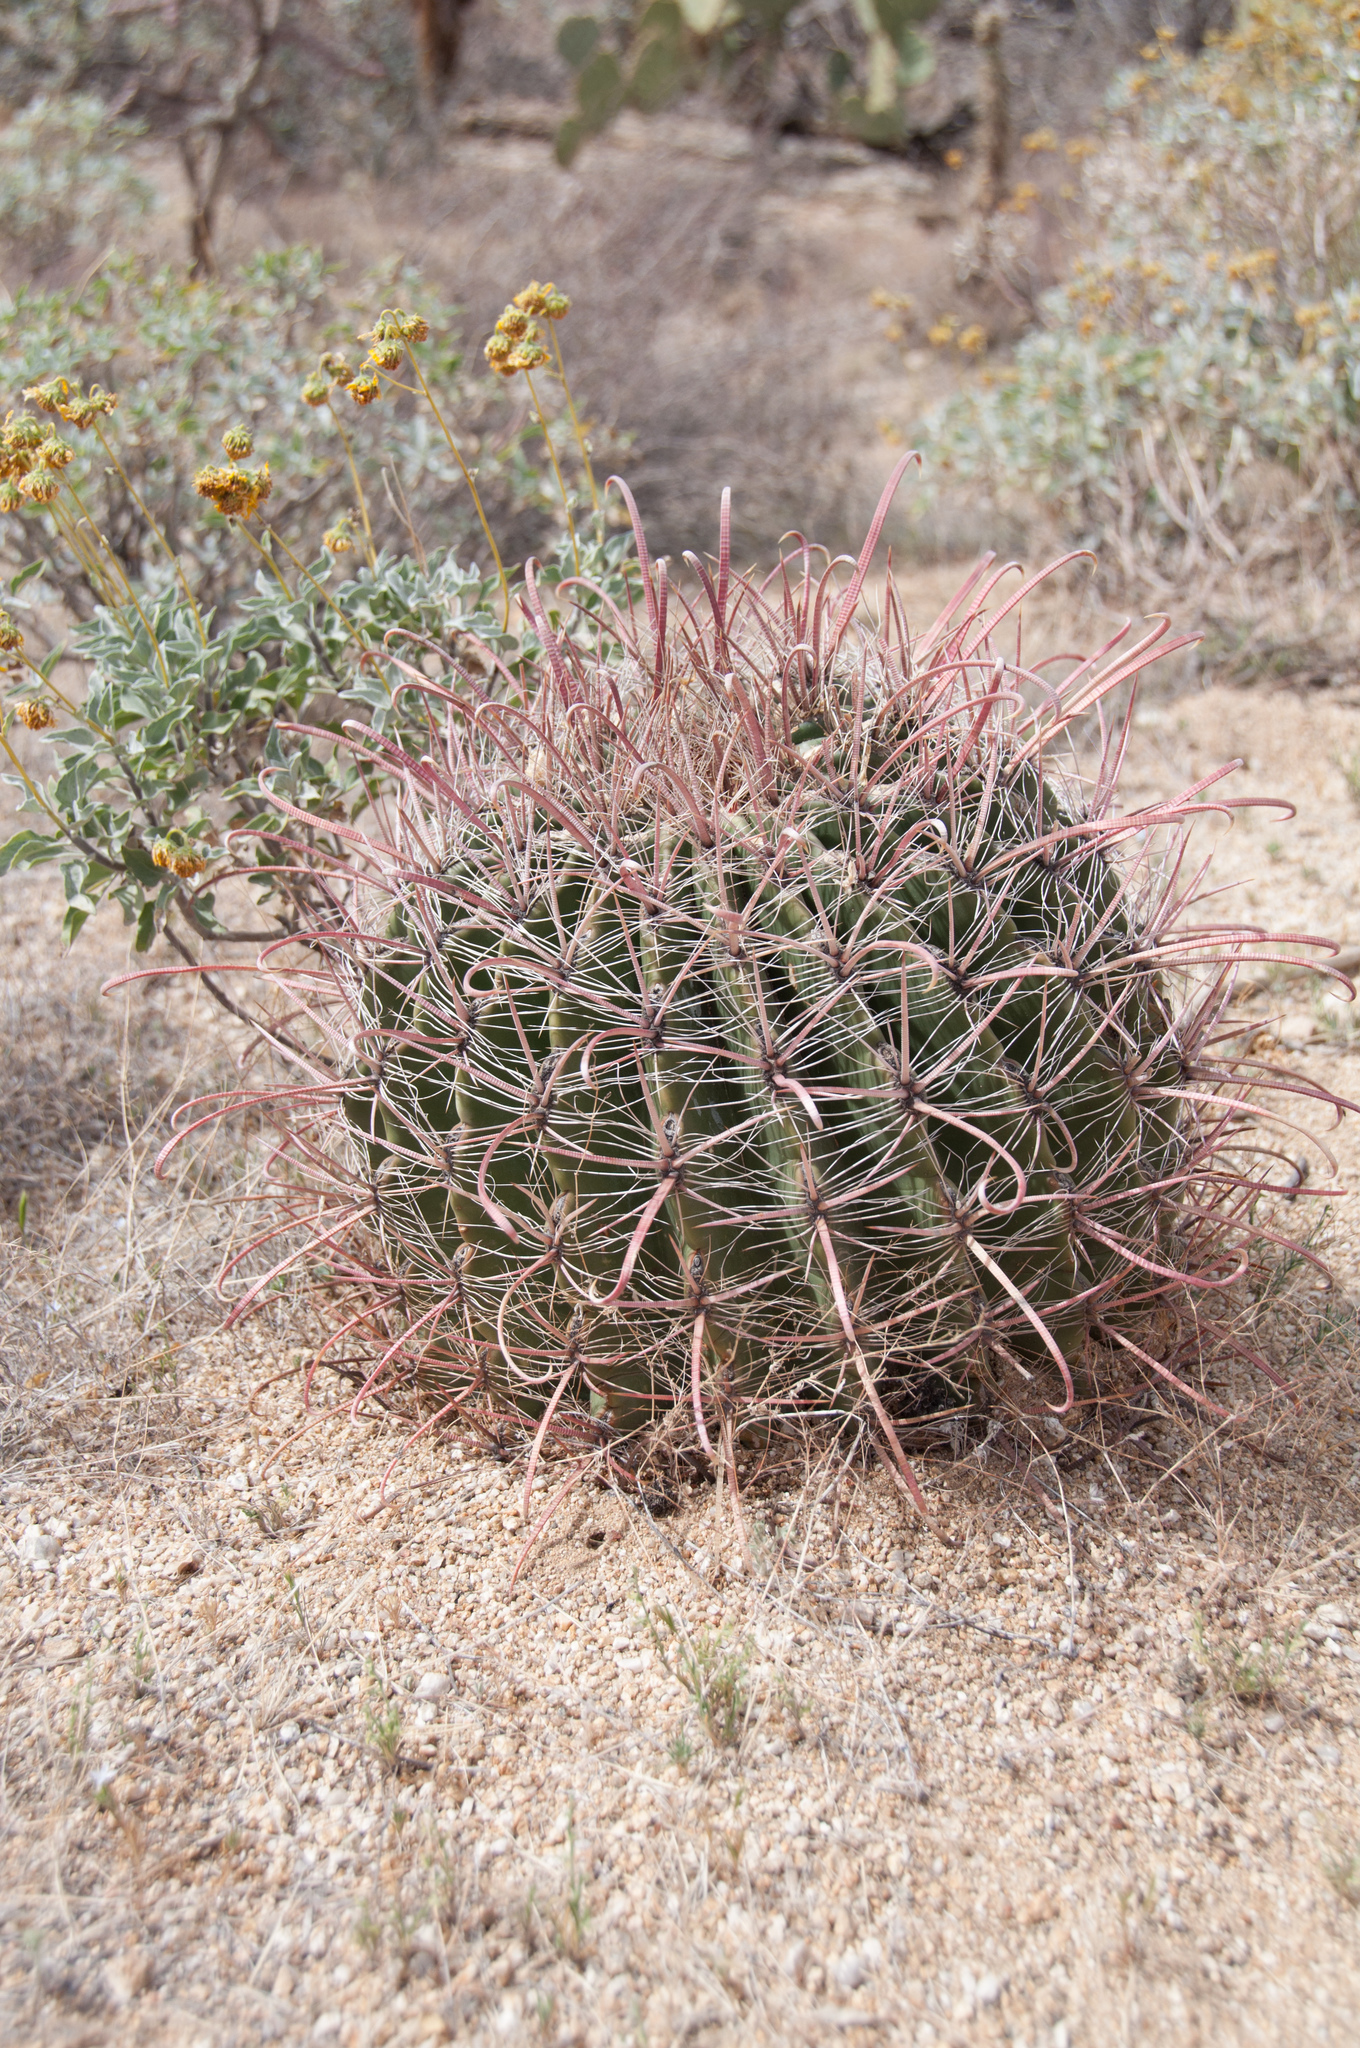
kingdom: Plantae
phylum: Tracheophyta
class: Magnoliopsida
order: Caryophyllales
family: Cactaceae
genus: Ferocactus
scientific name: Ferocactus wislizeni
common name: Candy barrel cactus
